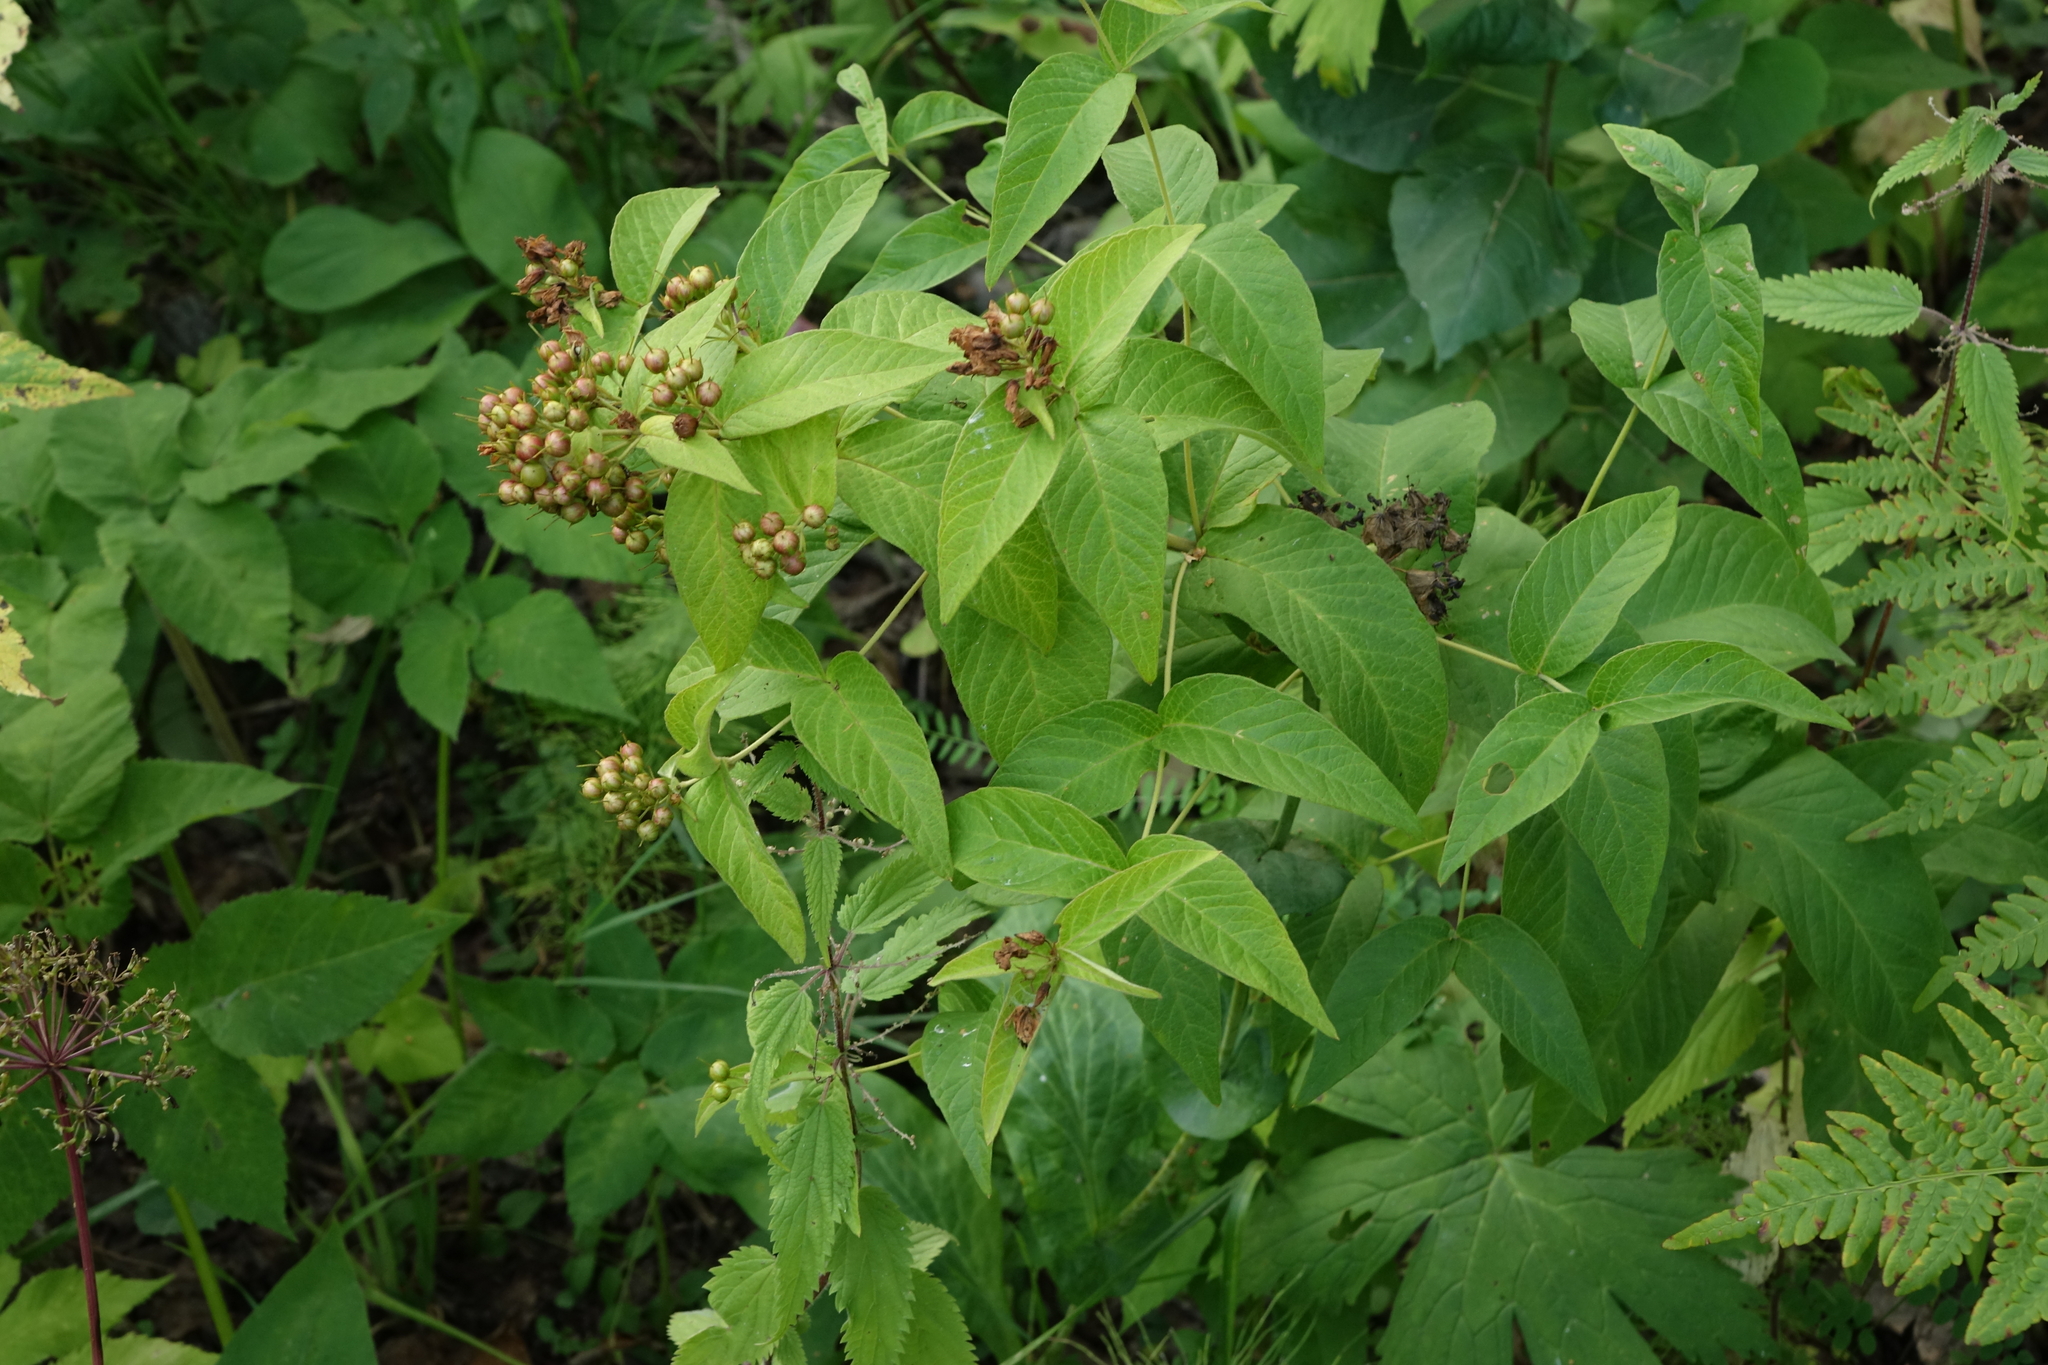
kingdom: Plantae
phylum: Tracheophyta
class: Magnoliopsida
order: Ericales
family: Primulaceae
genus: Lysimachia
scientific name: Lysimachia vulgaris
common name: Yellow loosestrife
